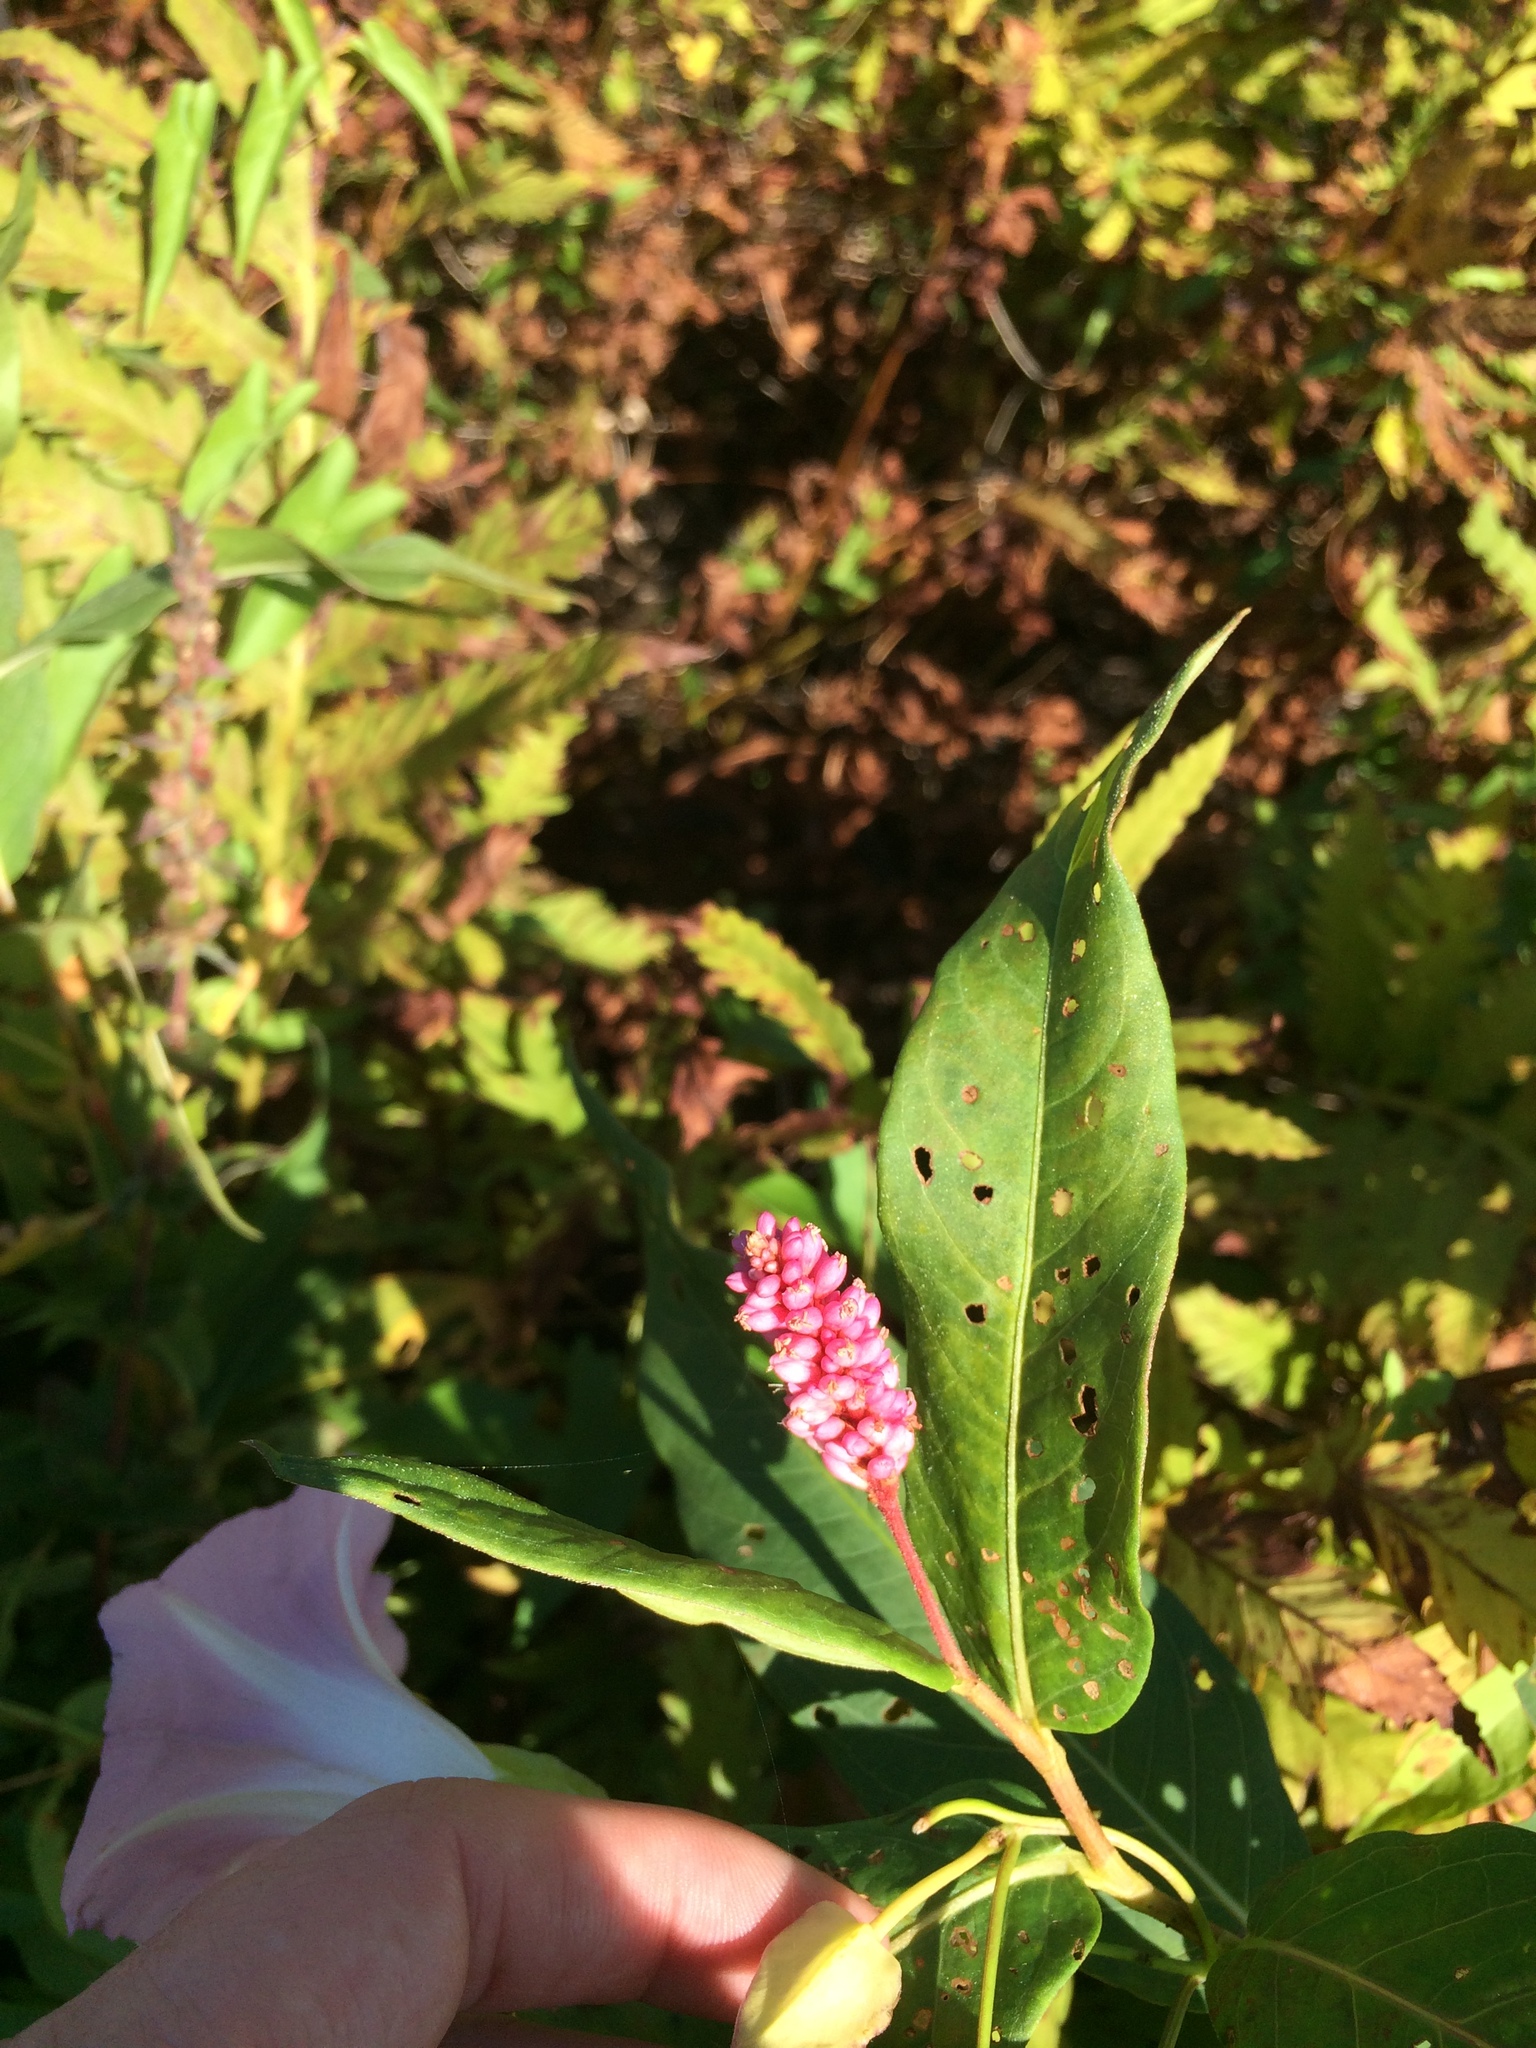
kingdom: Plantae
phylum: Tracheophyta
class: Magnoliopsida
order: Caryophyllales
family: Polygonaceae
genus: Persicaria
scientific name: Persicaria amphibia
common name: Amphibious bistort
